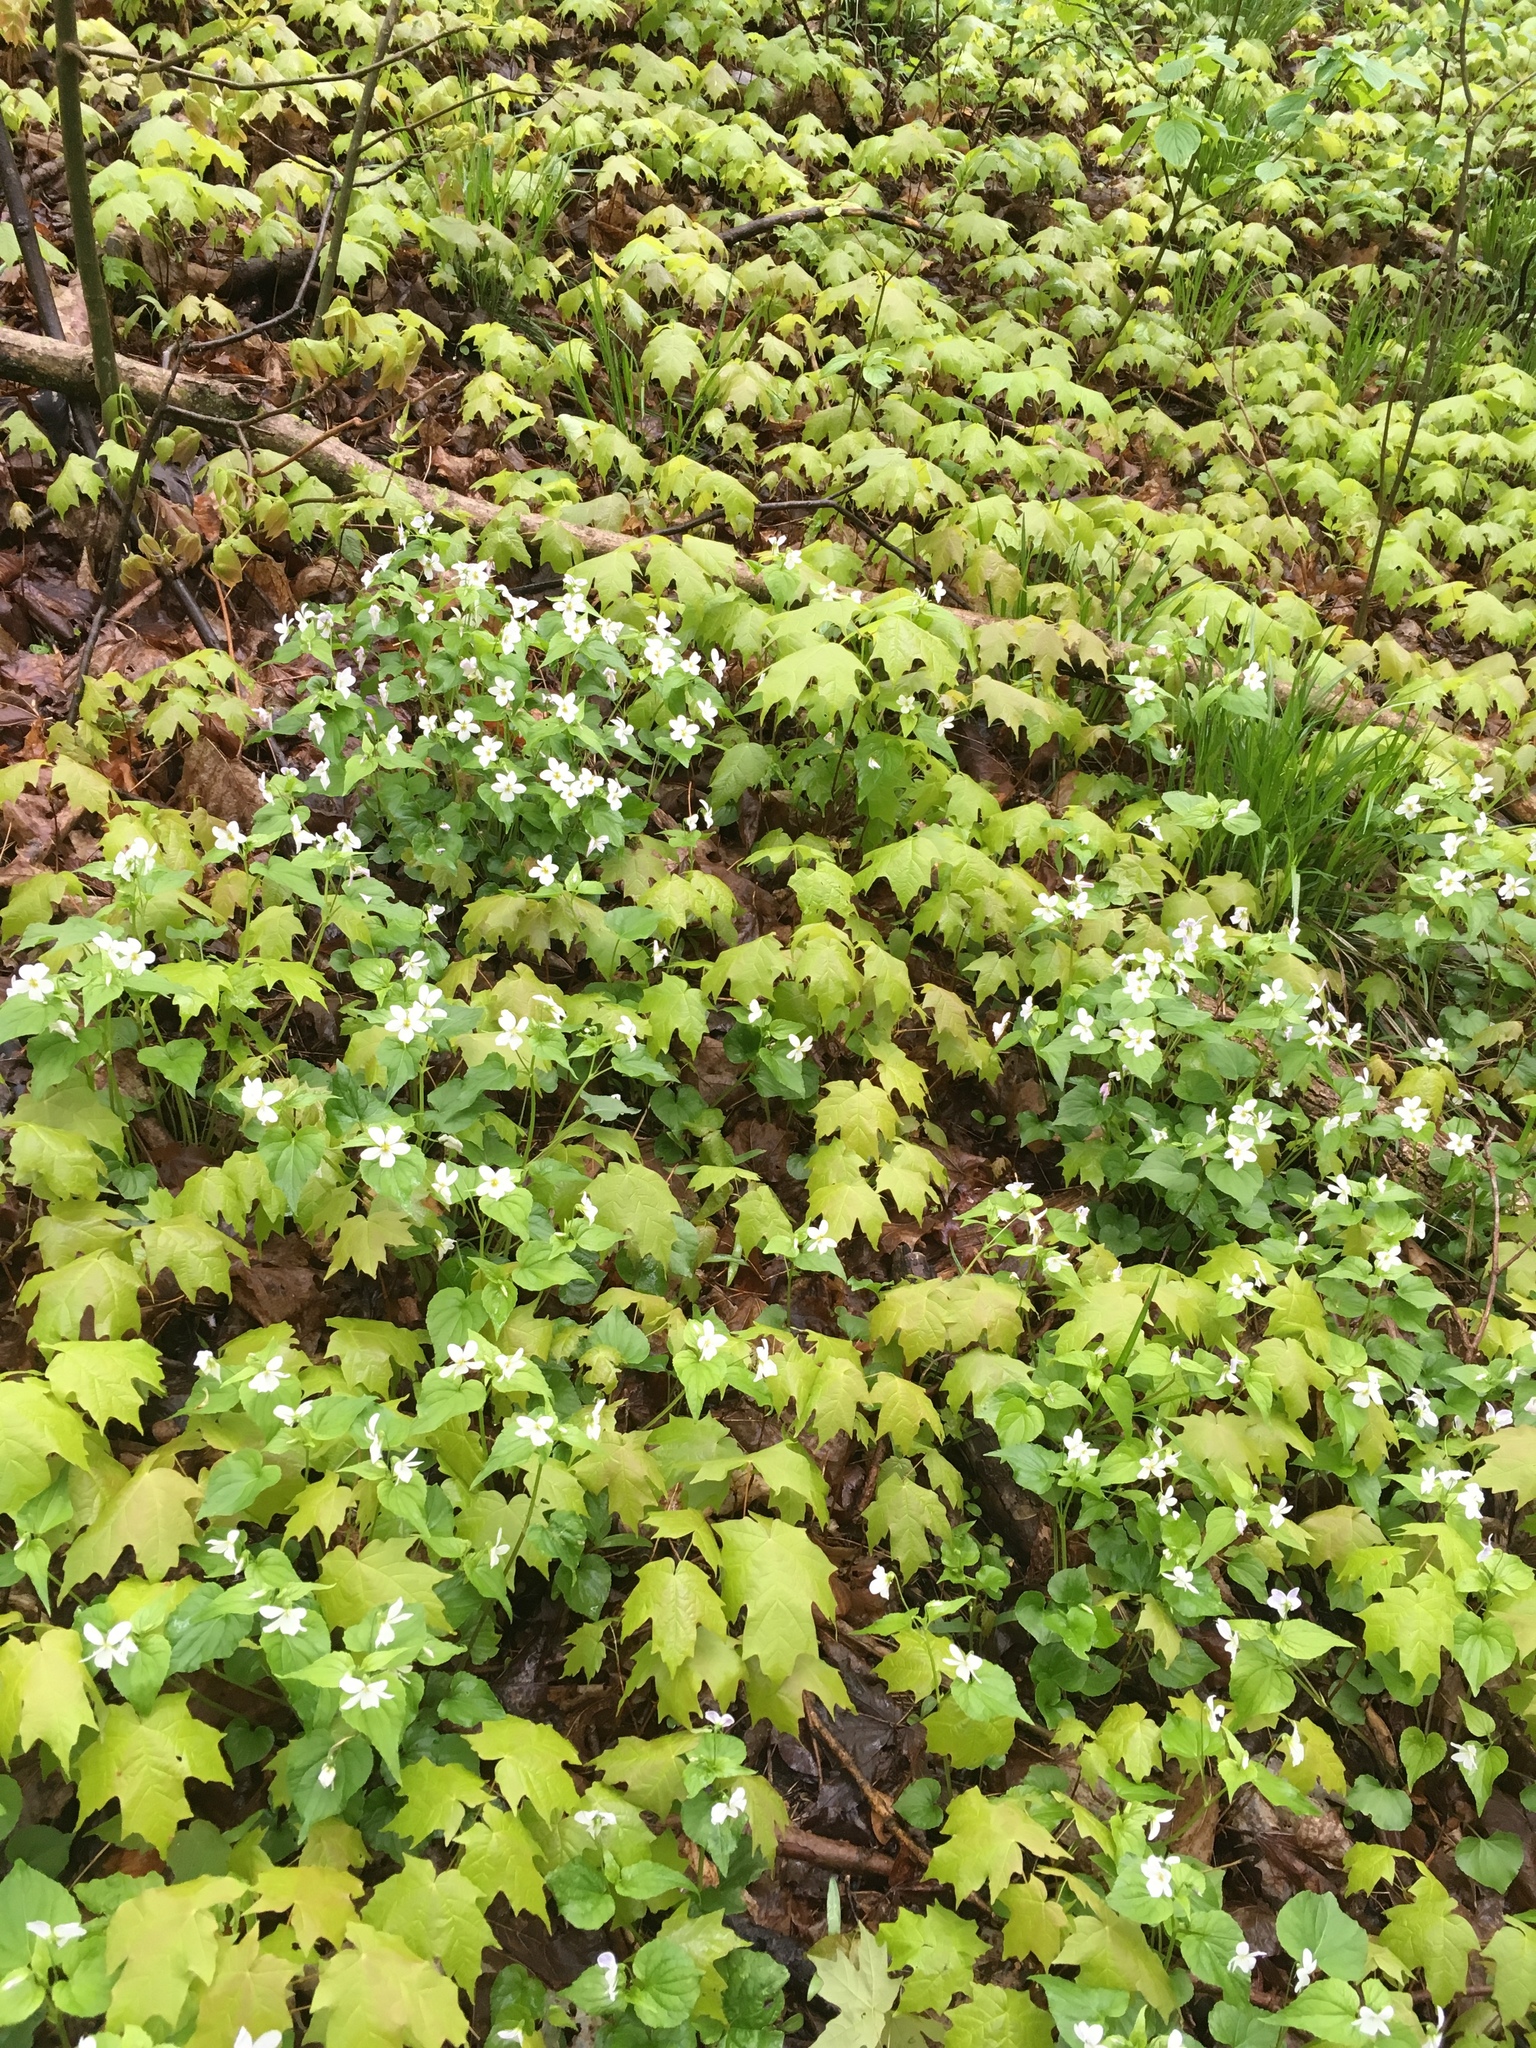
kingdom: Plantae
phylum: Tracheophyta
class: Magnoliopsida
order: Malpighiales
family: Violaceae
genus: Viola
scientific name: Viola canadensis
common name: Canada violet
